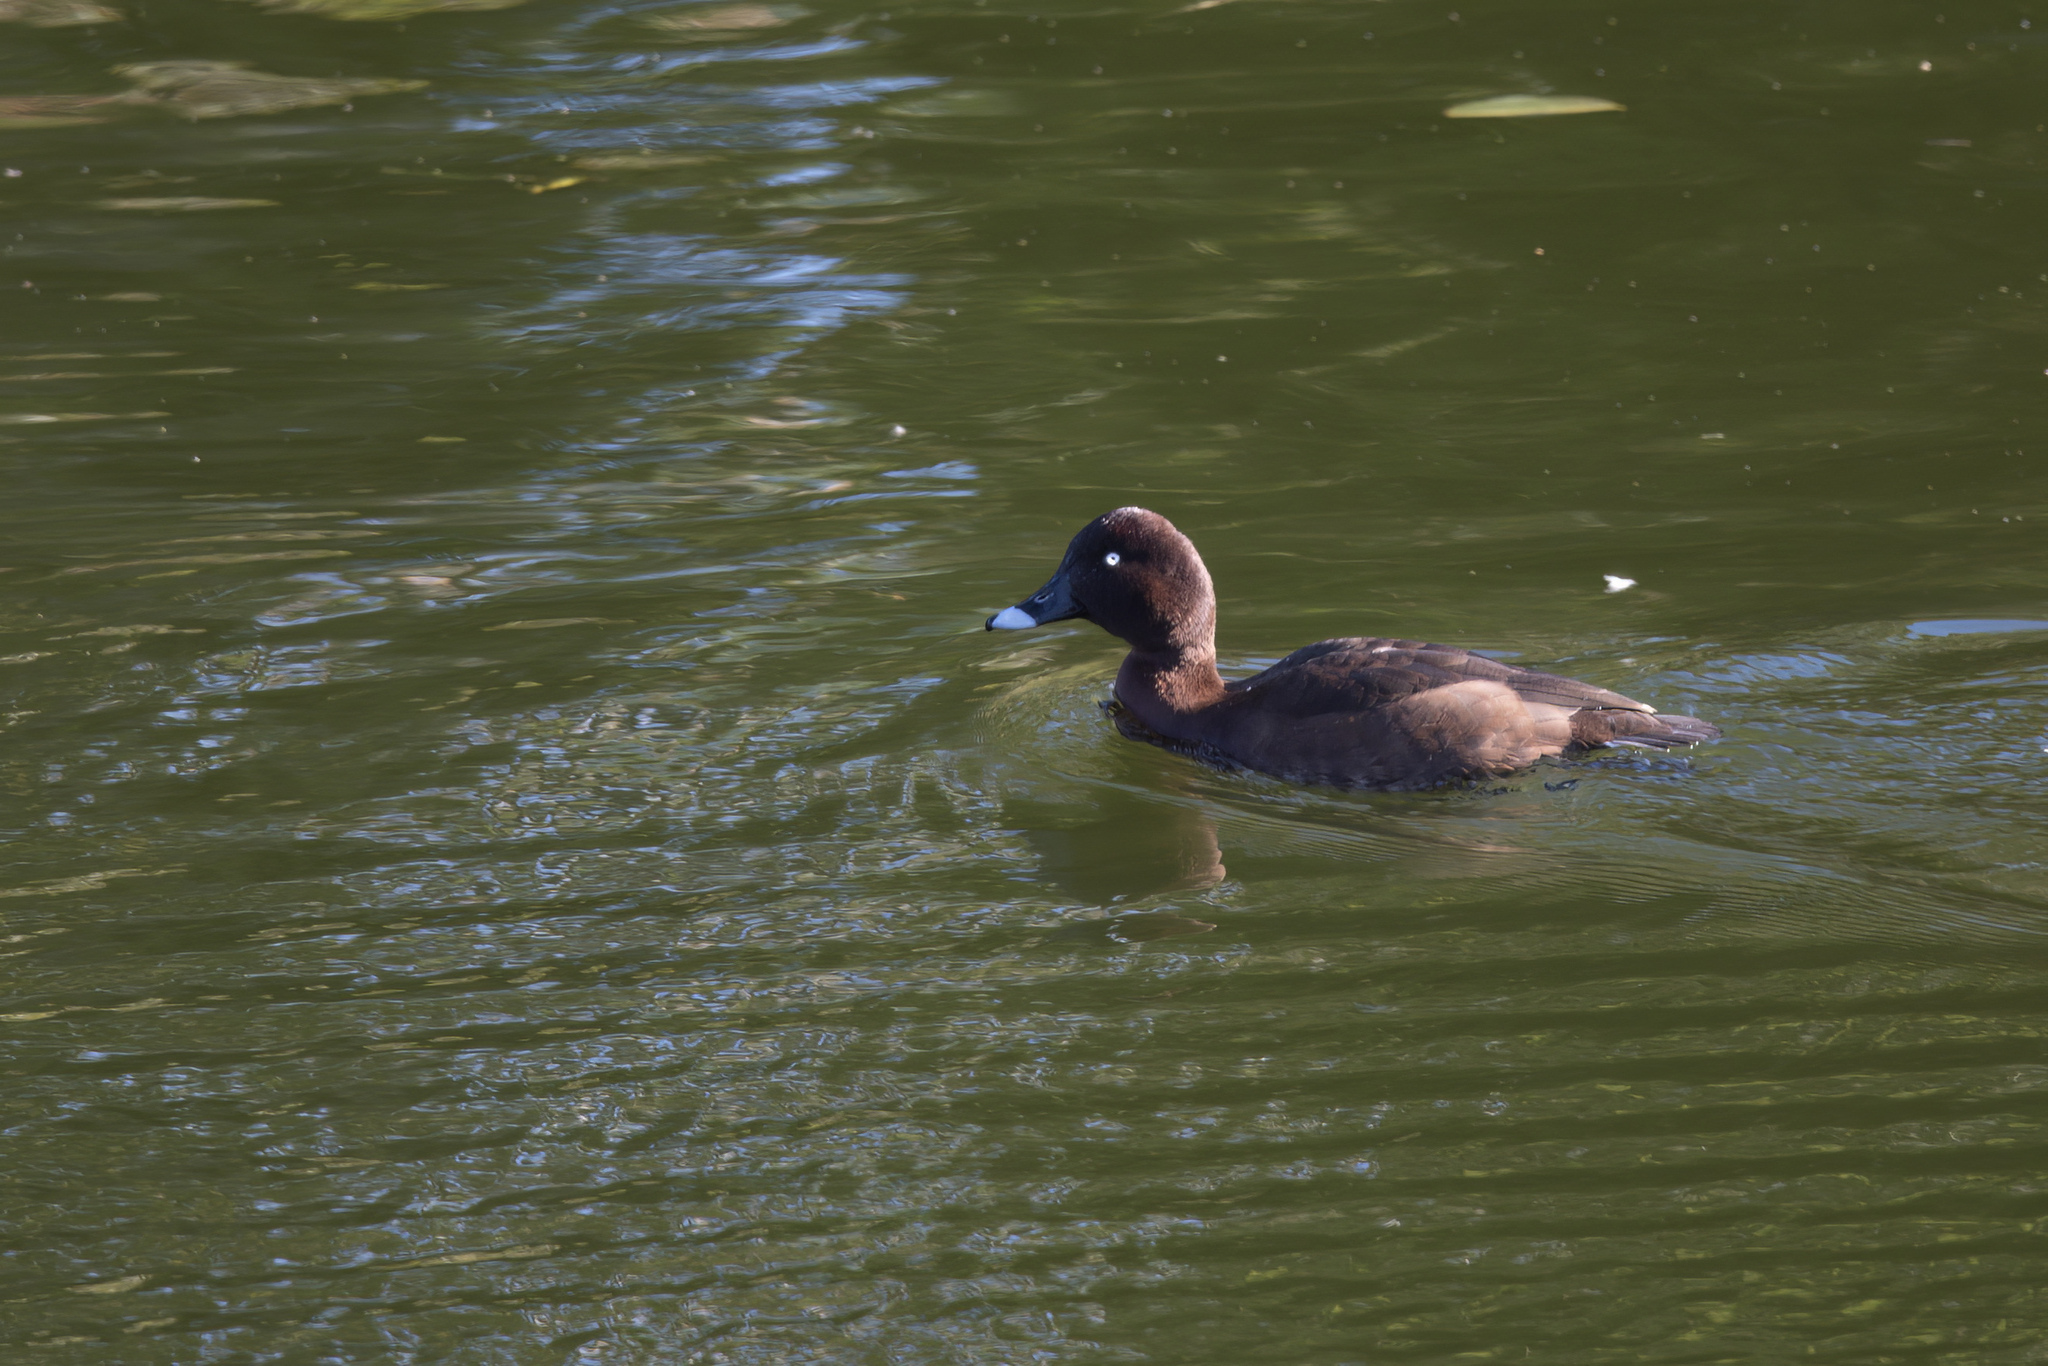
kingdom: Animalia
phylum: Chordata
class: Aves
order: Anseriformes
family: Anatidae
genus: Aythya
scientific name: Aythya australis
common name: Hardhead
